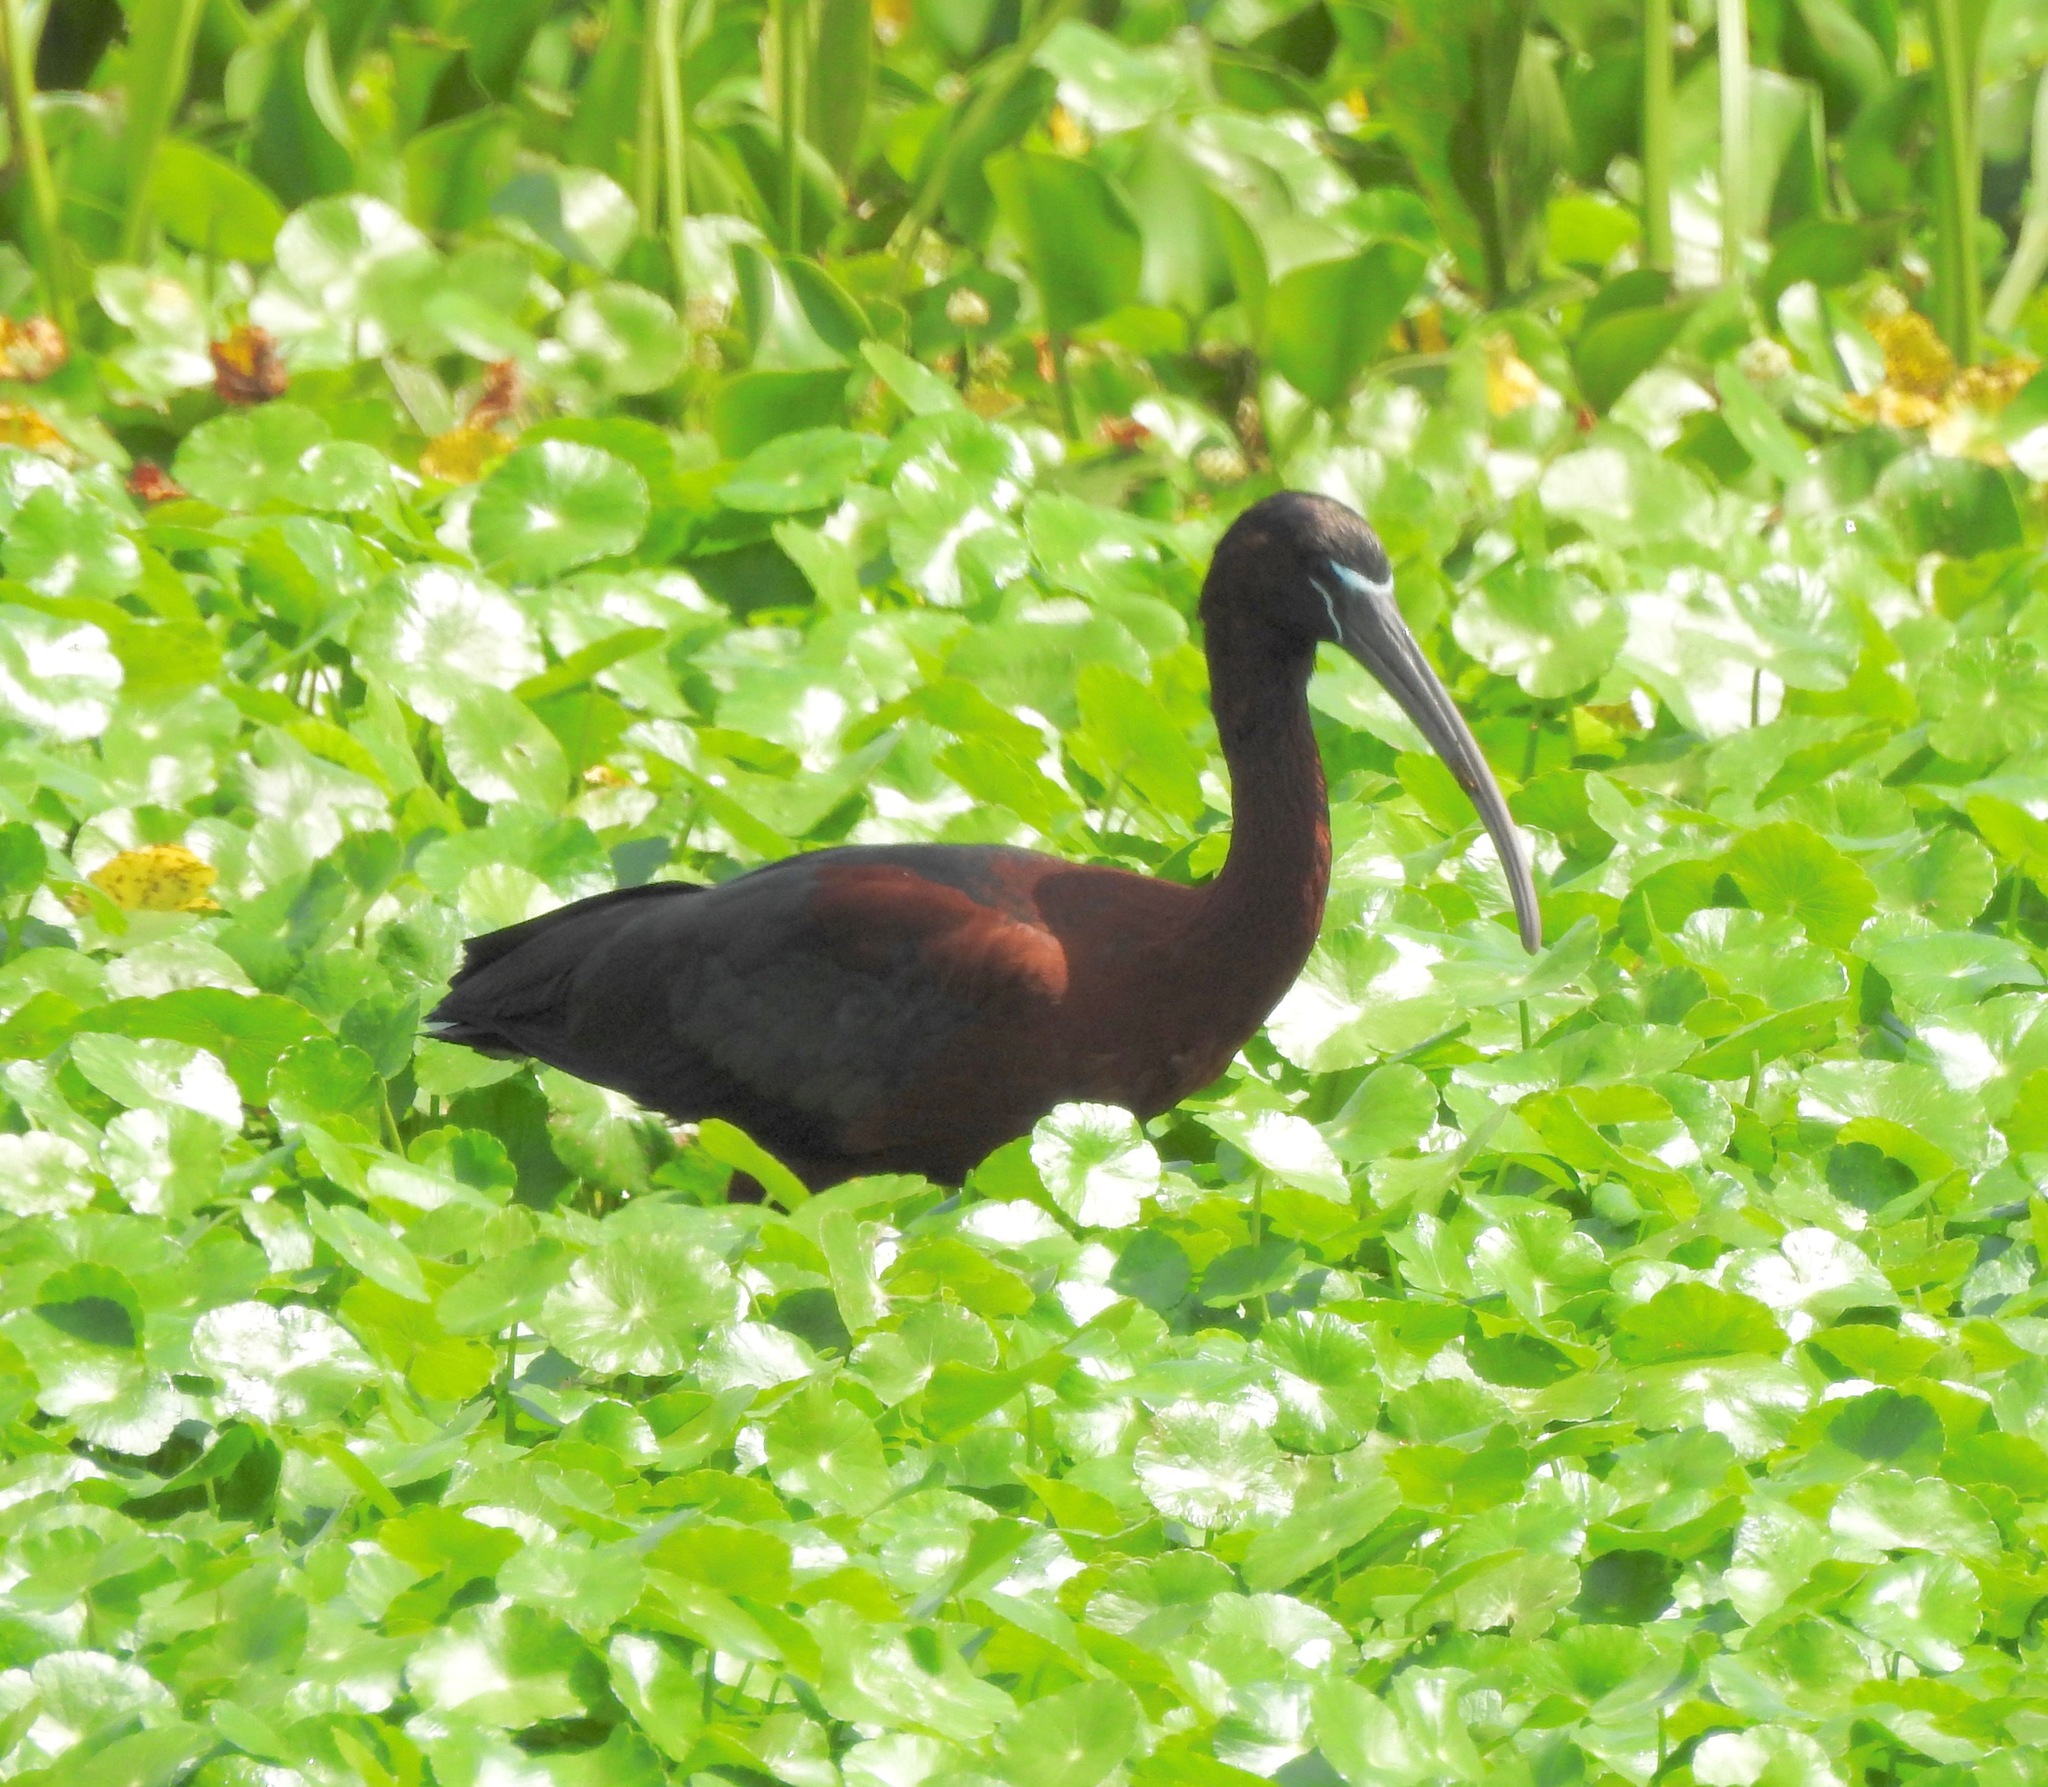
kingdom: Animalia
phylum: Chordata
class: Aves
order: Pelecaniformes
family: Threskiornithidae
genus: Plegadis
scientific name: Plegadis falcinellus
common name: Glossy ibis
